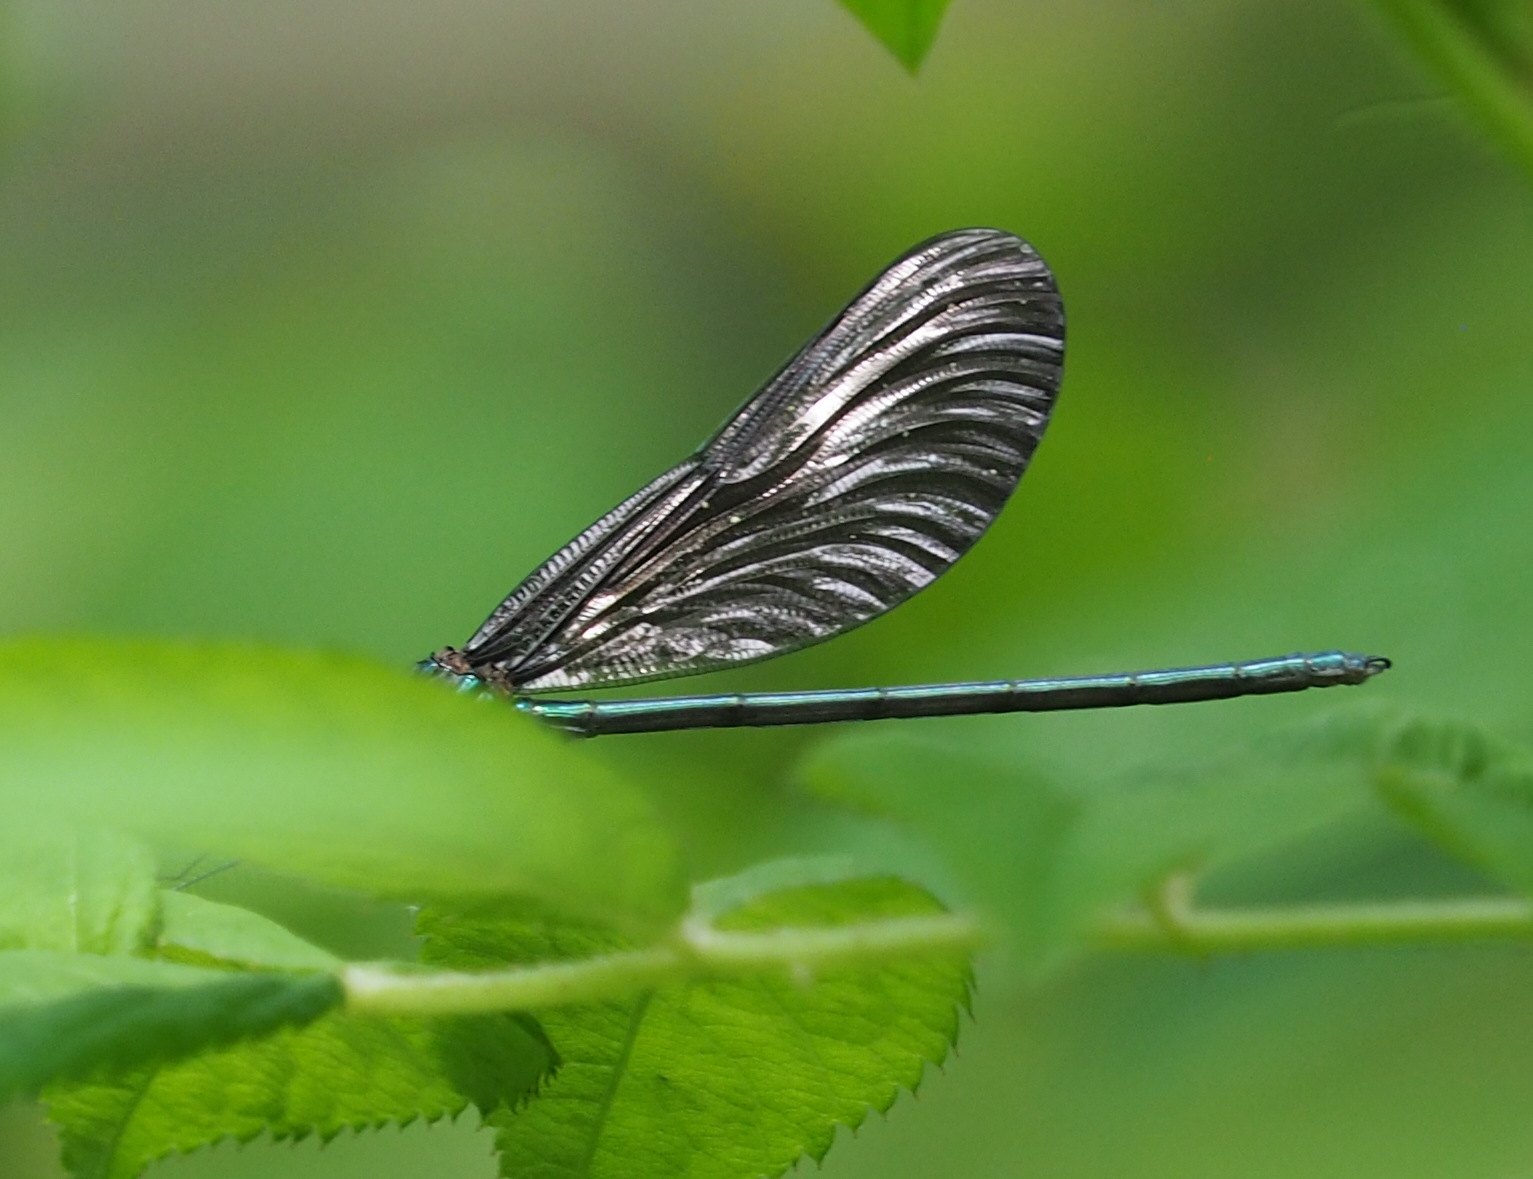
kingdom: Animalia
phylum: Arthropoda
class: Insecta
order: Odonata
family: Calopterygidae
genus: Calopteryx
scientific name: Calopteryx maculata
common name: Ebony jewelwing
